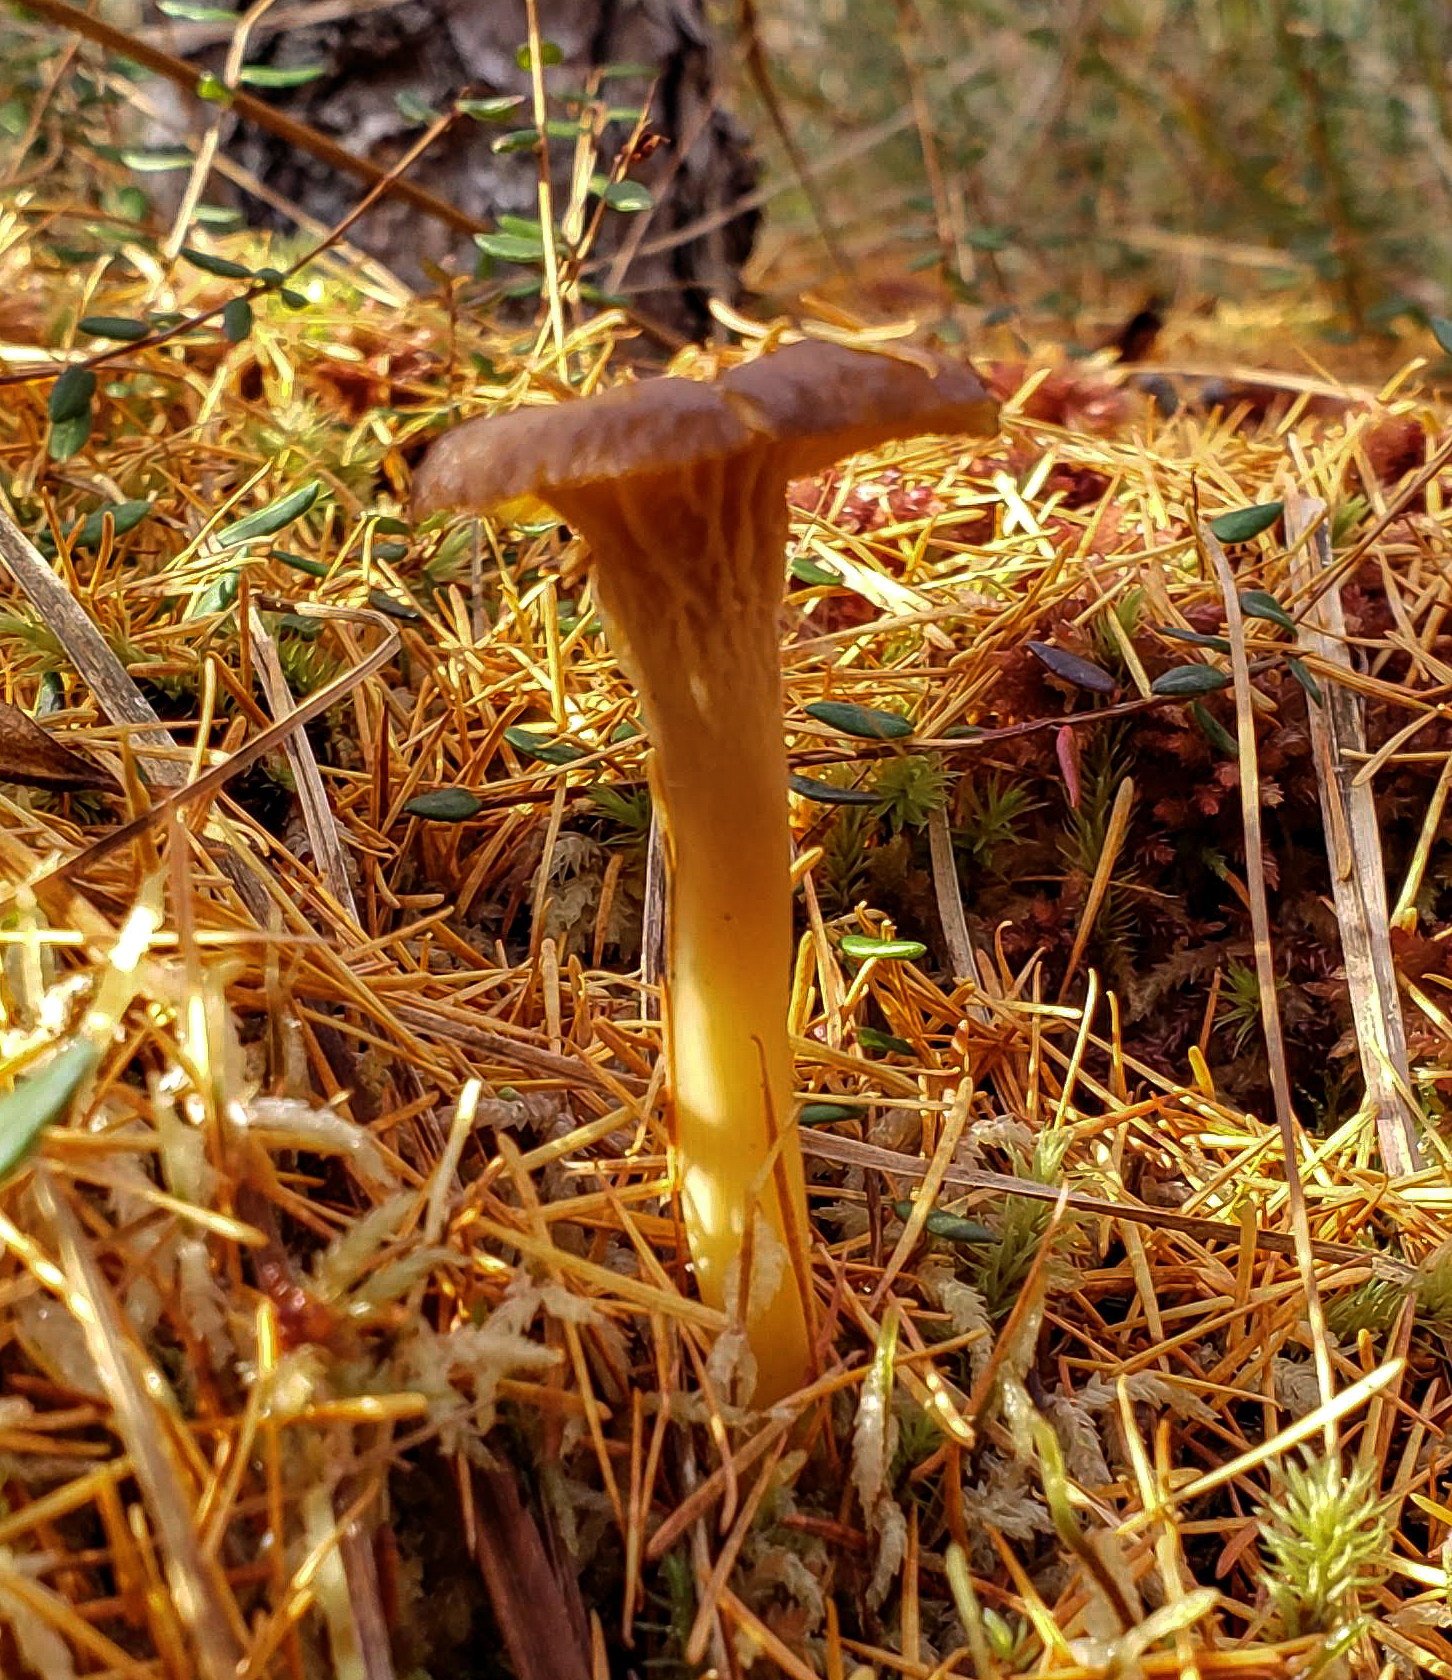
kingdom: Fungi
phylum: Basidiomycota
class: Agaricomycetes
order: Cantharellales
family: Hydnaceae
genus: Craterellus
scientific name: Craterellus tubaeformis
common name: Yellowfoot
